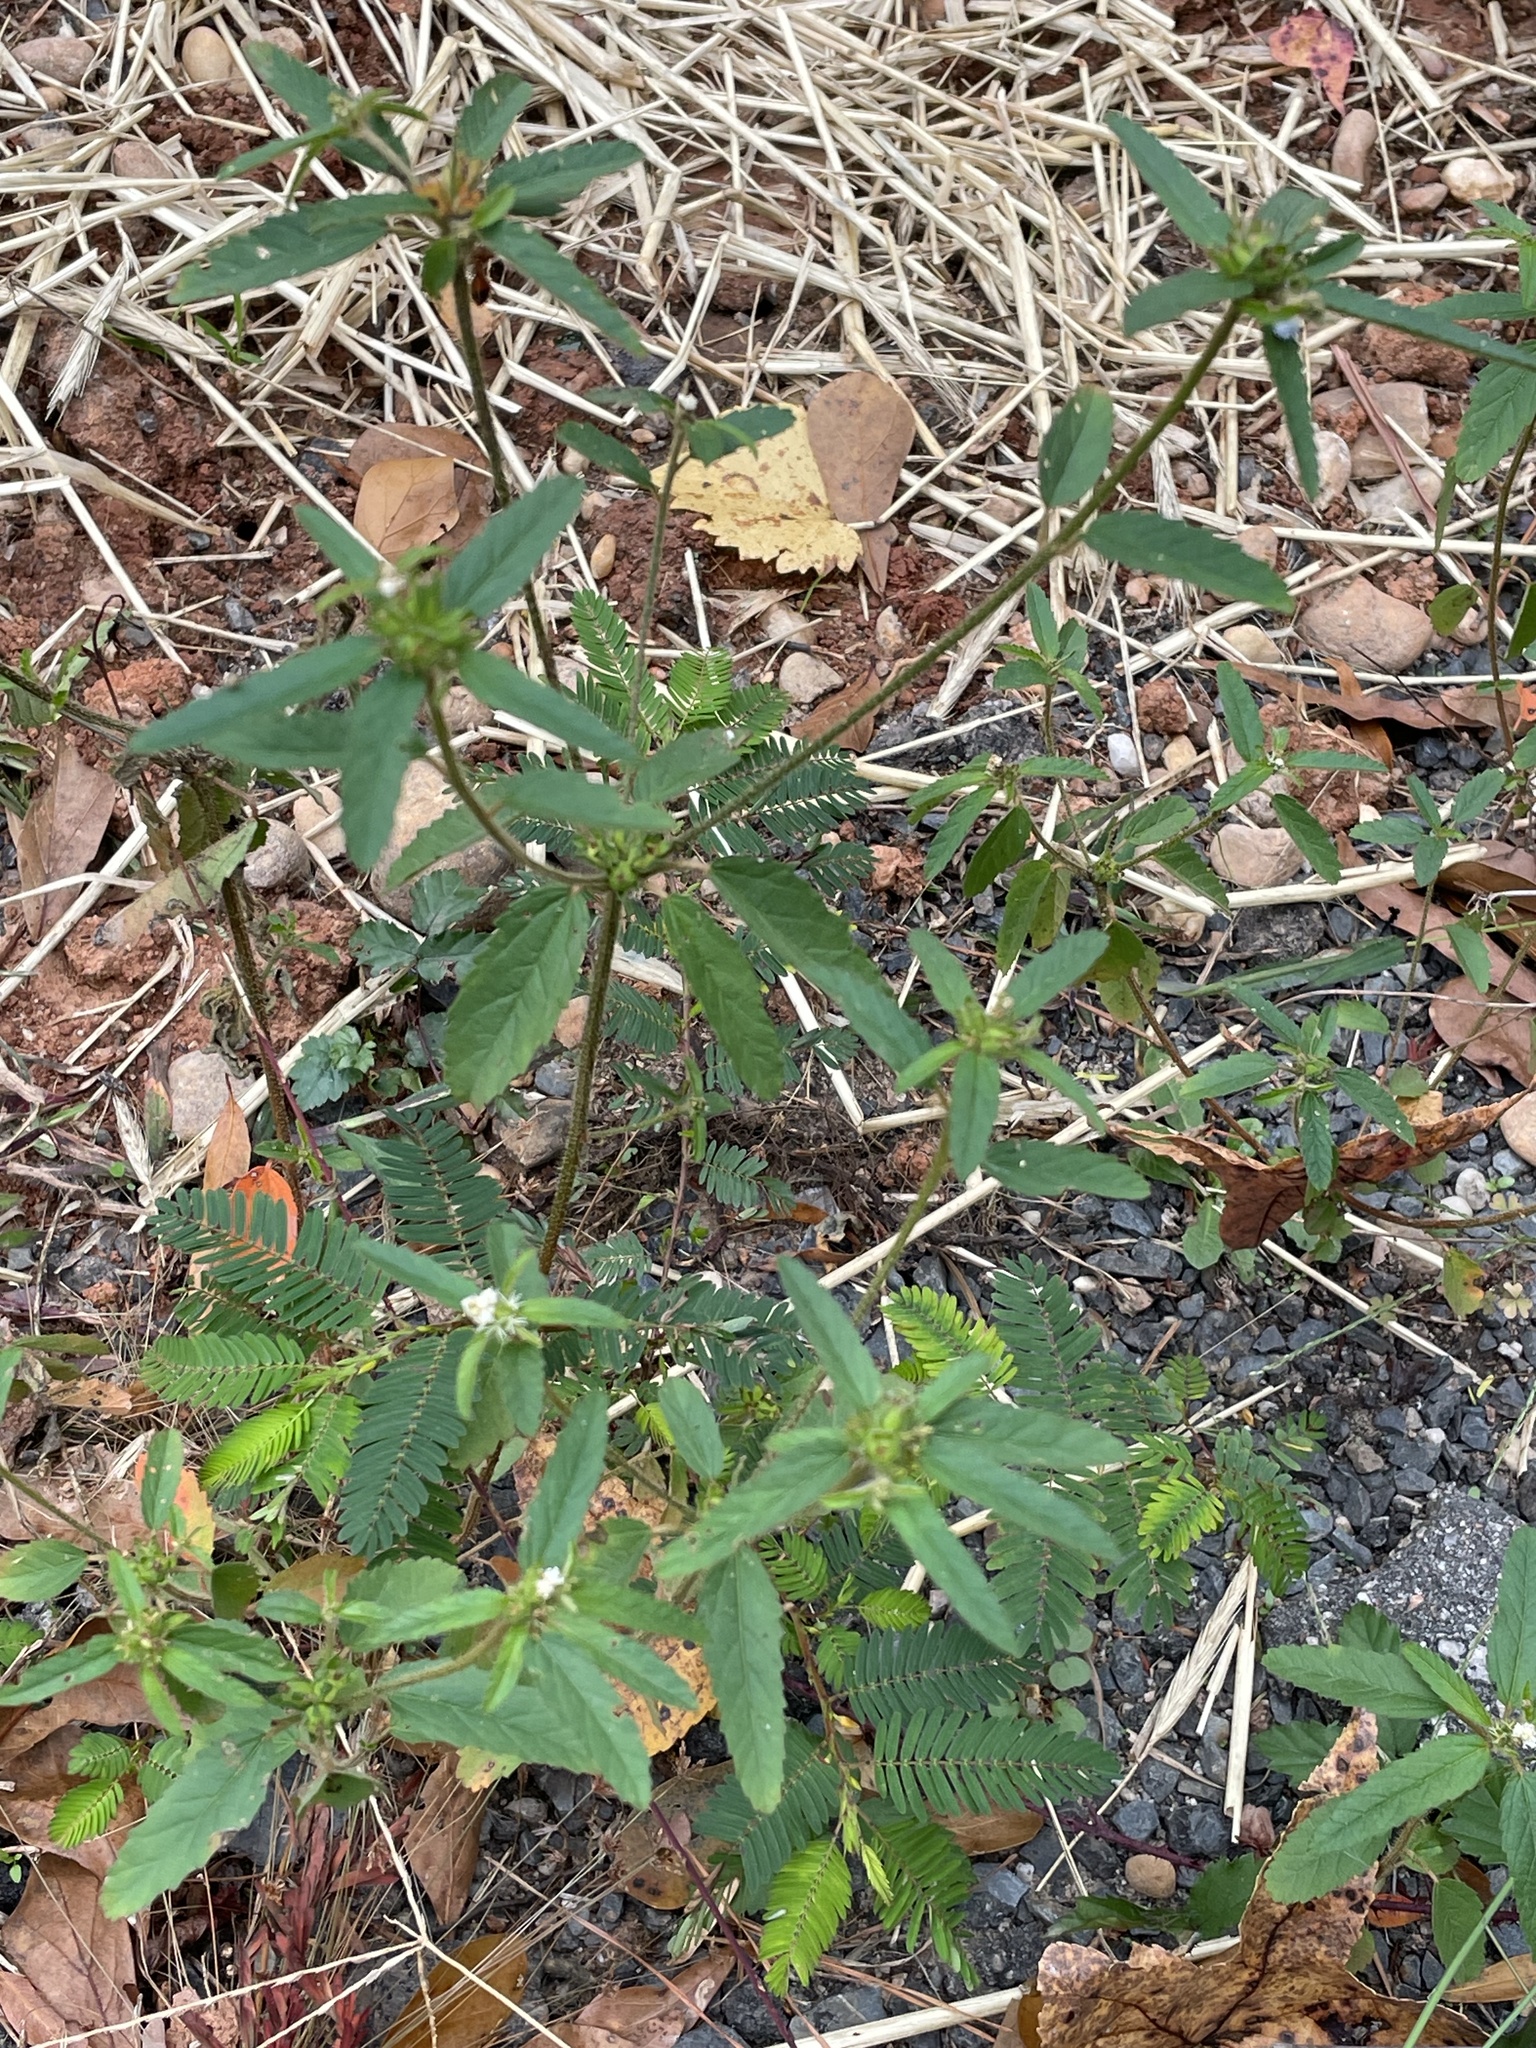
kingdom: Plantae
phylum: Tracheophyta
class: Magnoliopsida
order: Malpighiales
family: Euphorbiaceae
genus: Croton
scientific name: Croton glandulosus
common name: Tropic croton
